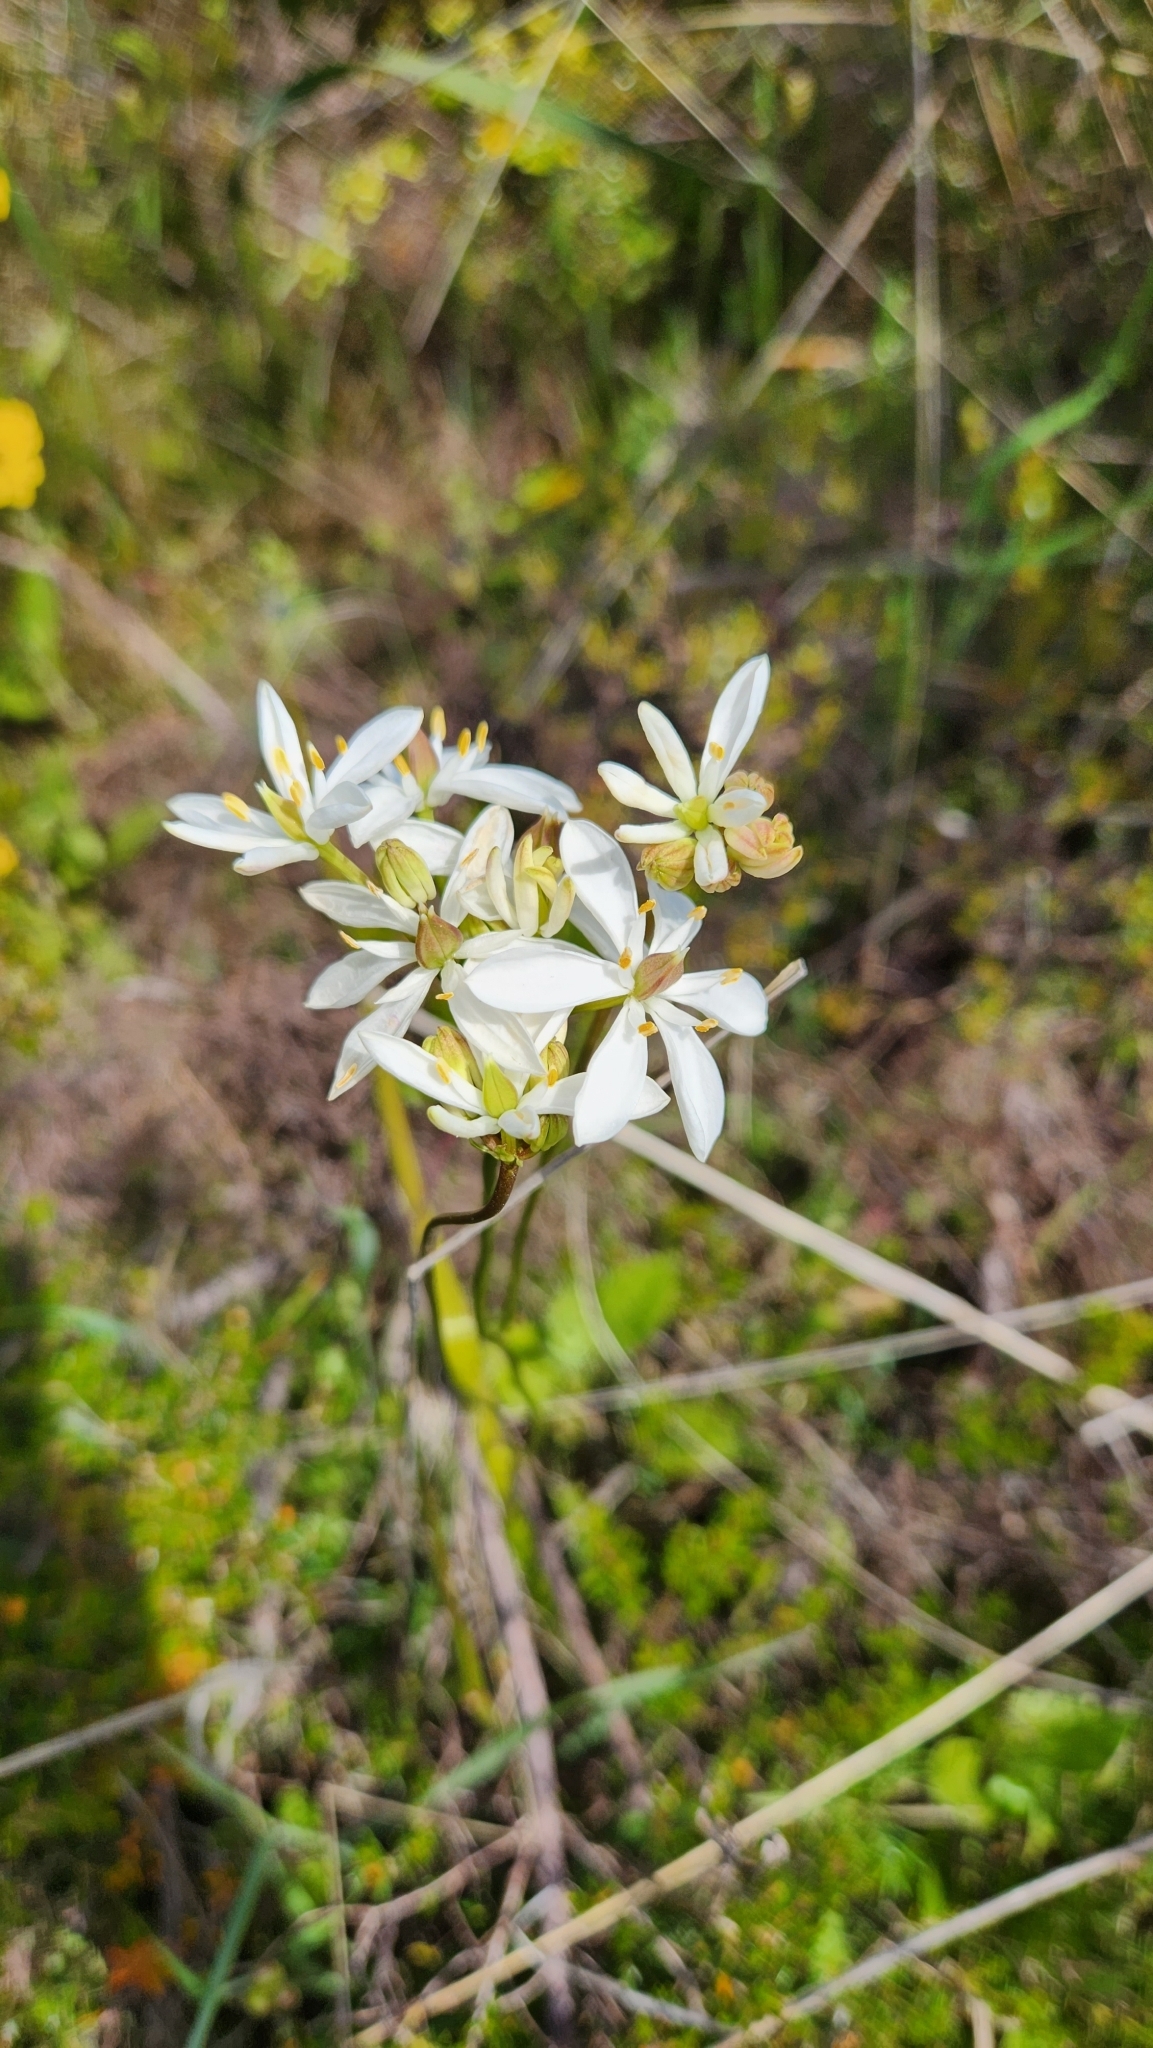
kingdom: Plantae
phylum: Tracheophyta
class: Liliopsida
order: Liliales
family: Colchicaceae
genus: Burchardia
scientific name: Burchardia congesta
